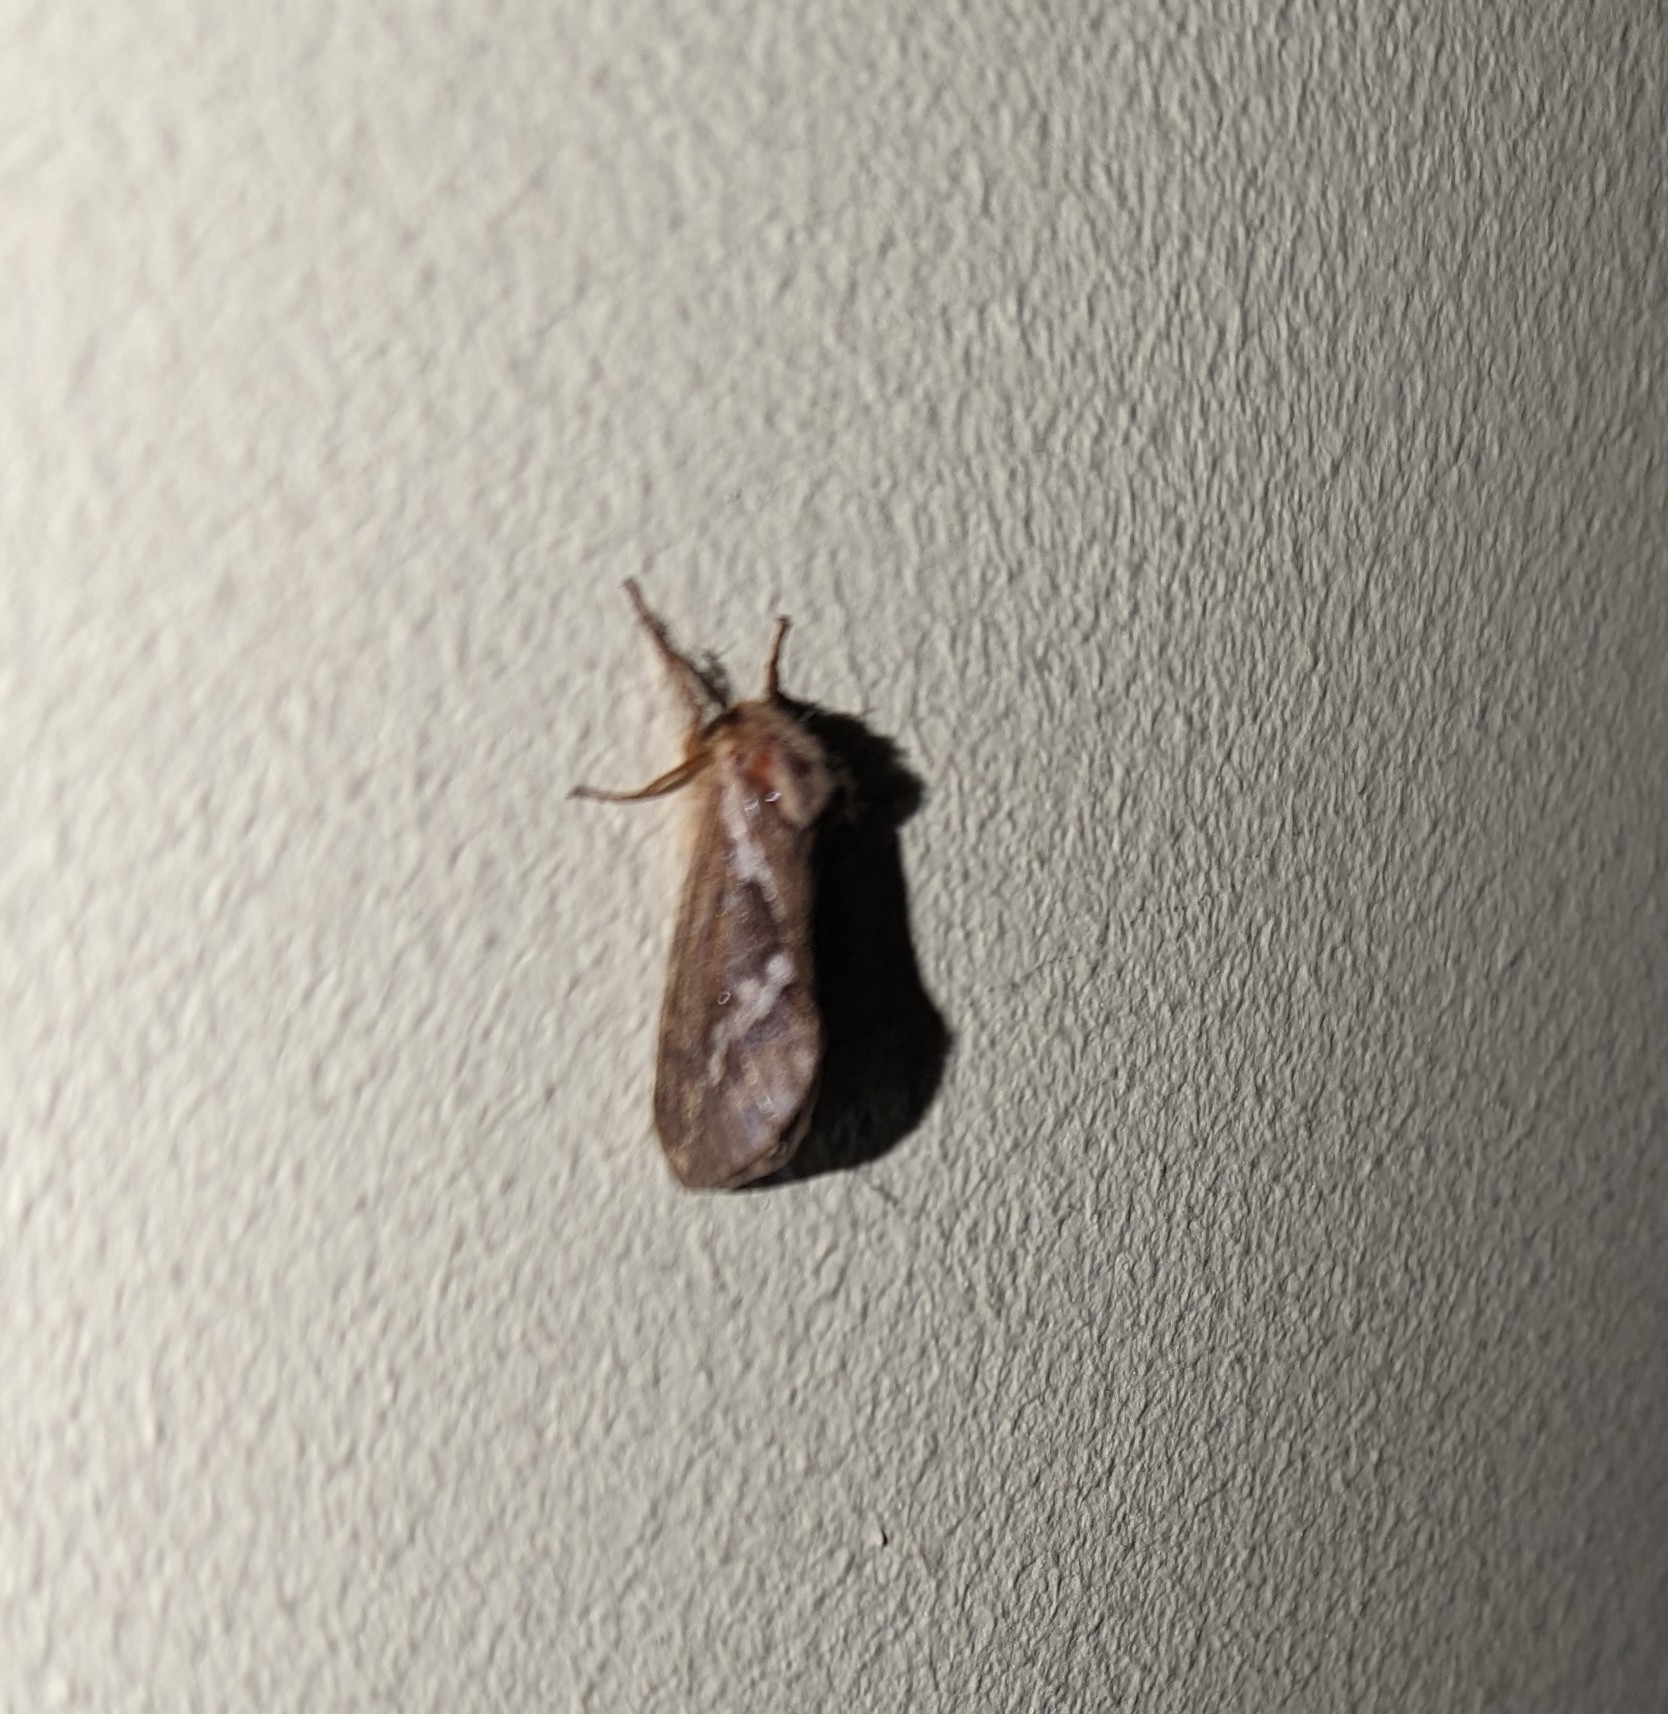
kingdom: Animalia
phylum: Arthropoda
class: Insecta
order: Lepidoptera
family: Hepialidae
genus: Korscheltellus
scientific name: Korscheltellus lupulina
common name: Common swift
